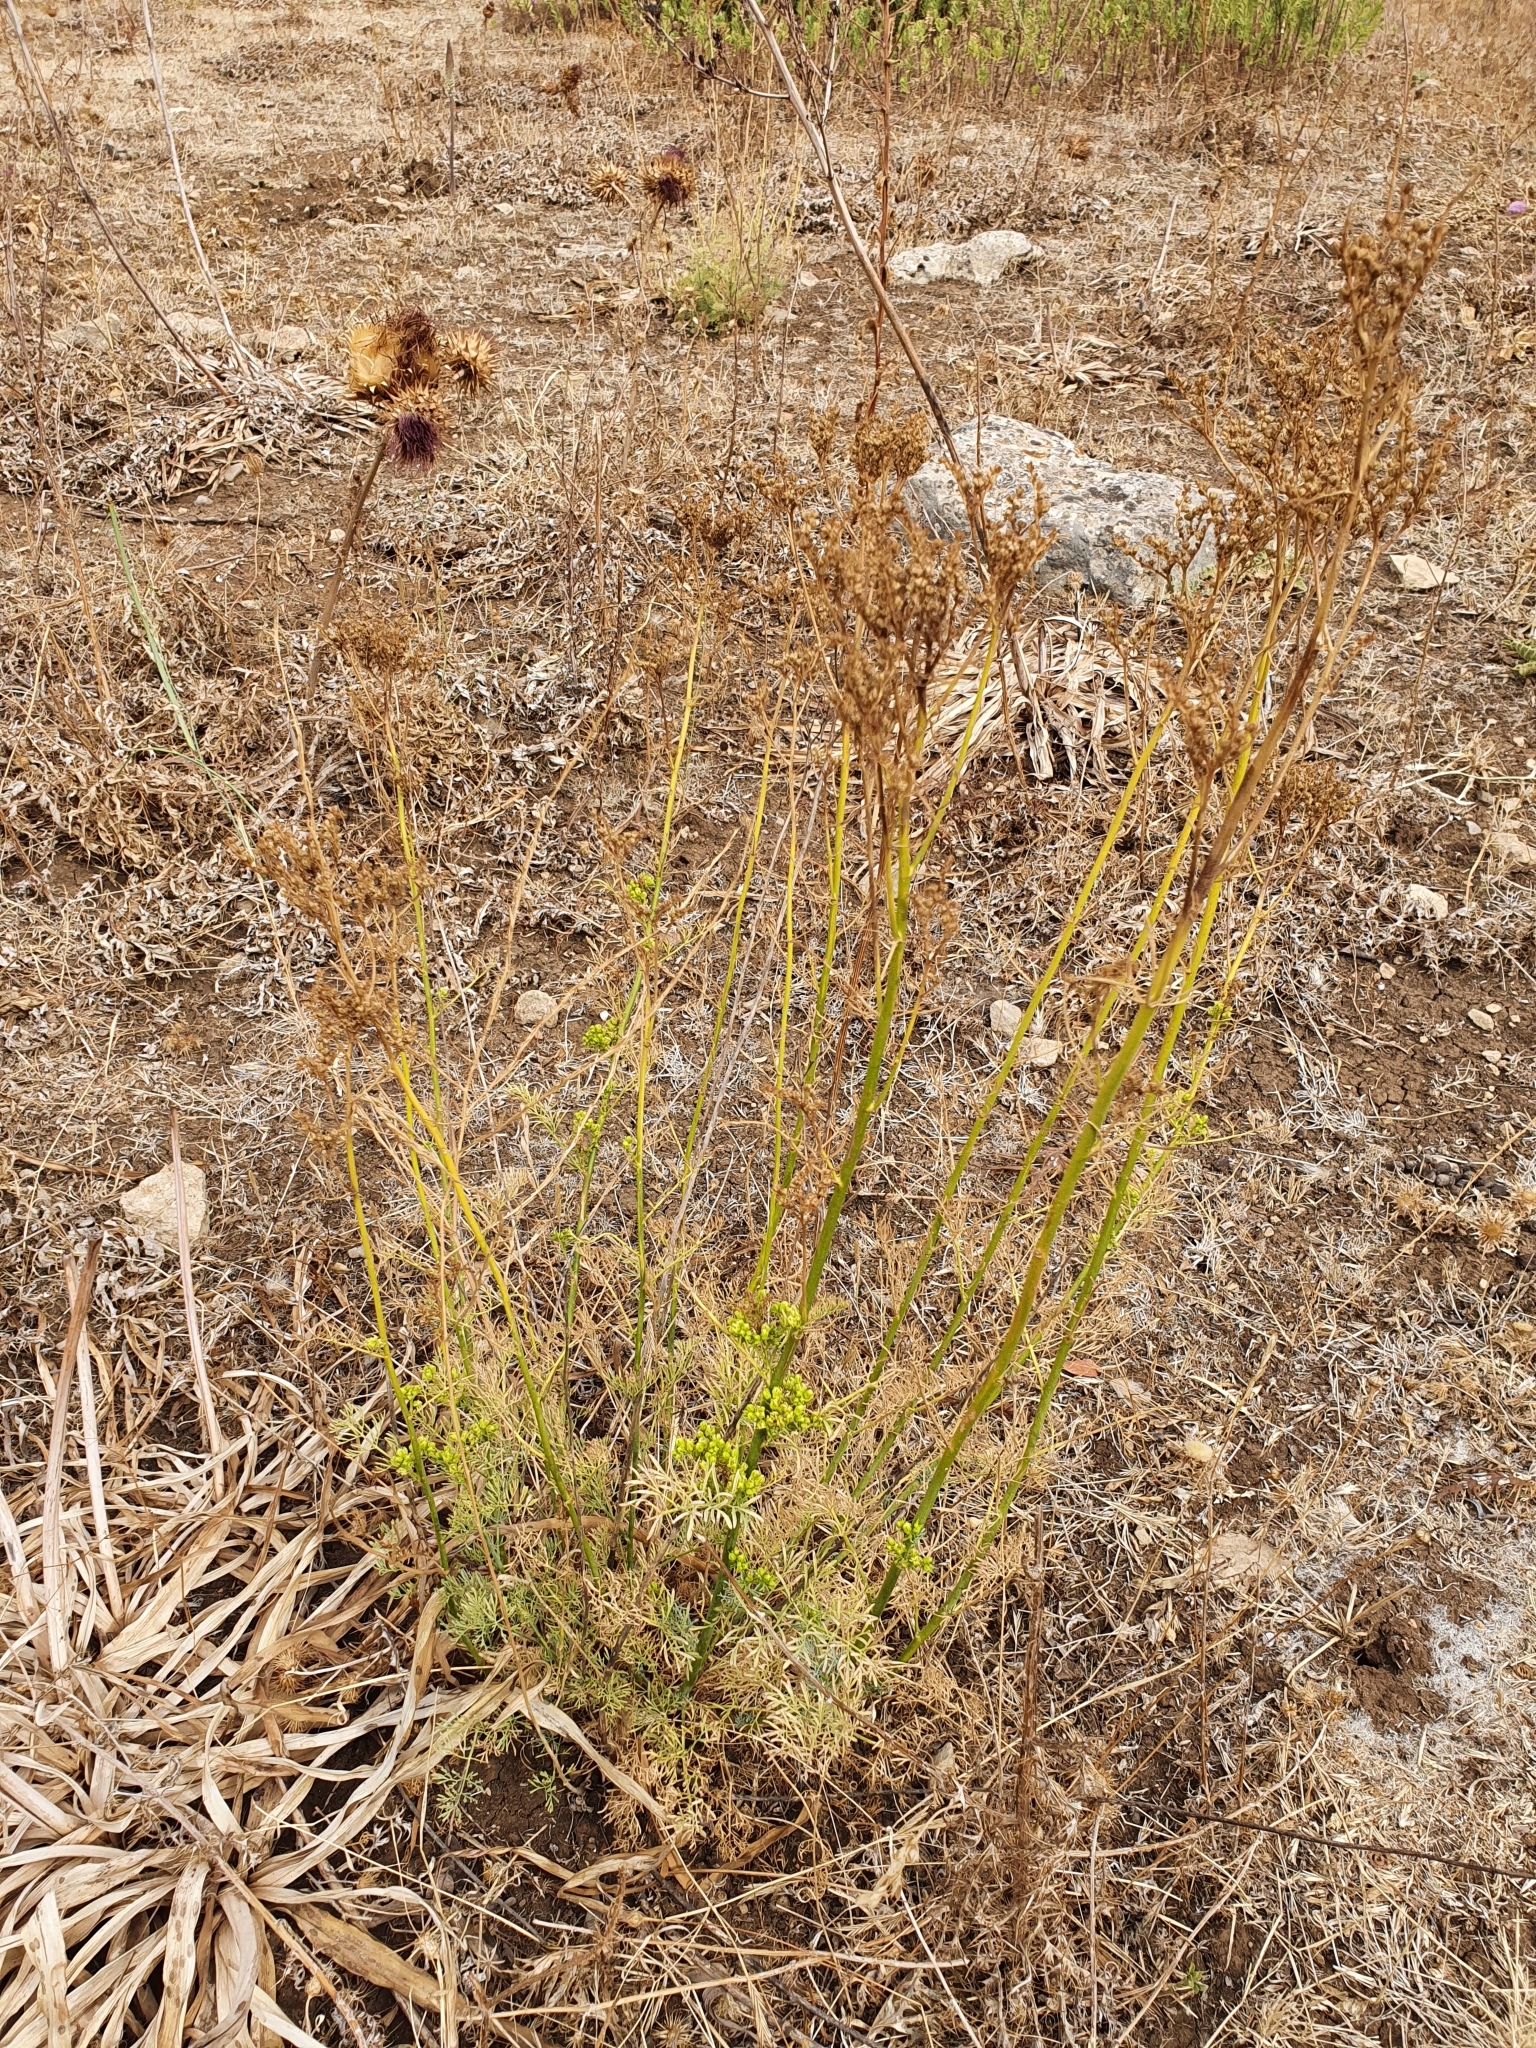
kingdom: Plantae
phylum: Tracheophyta
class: Magnoliopsida
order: Sapindales
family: Rutaceae
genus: Ruta
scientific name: Ruta montana
